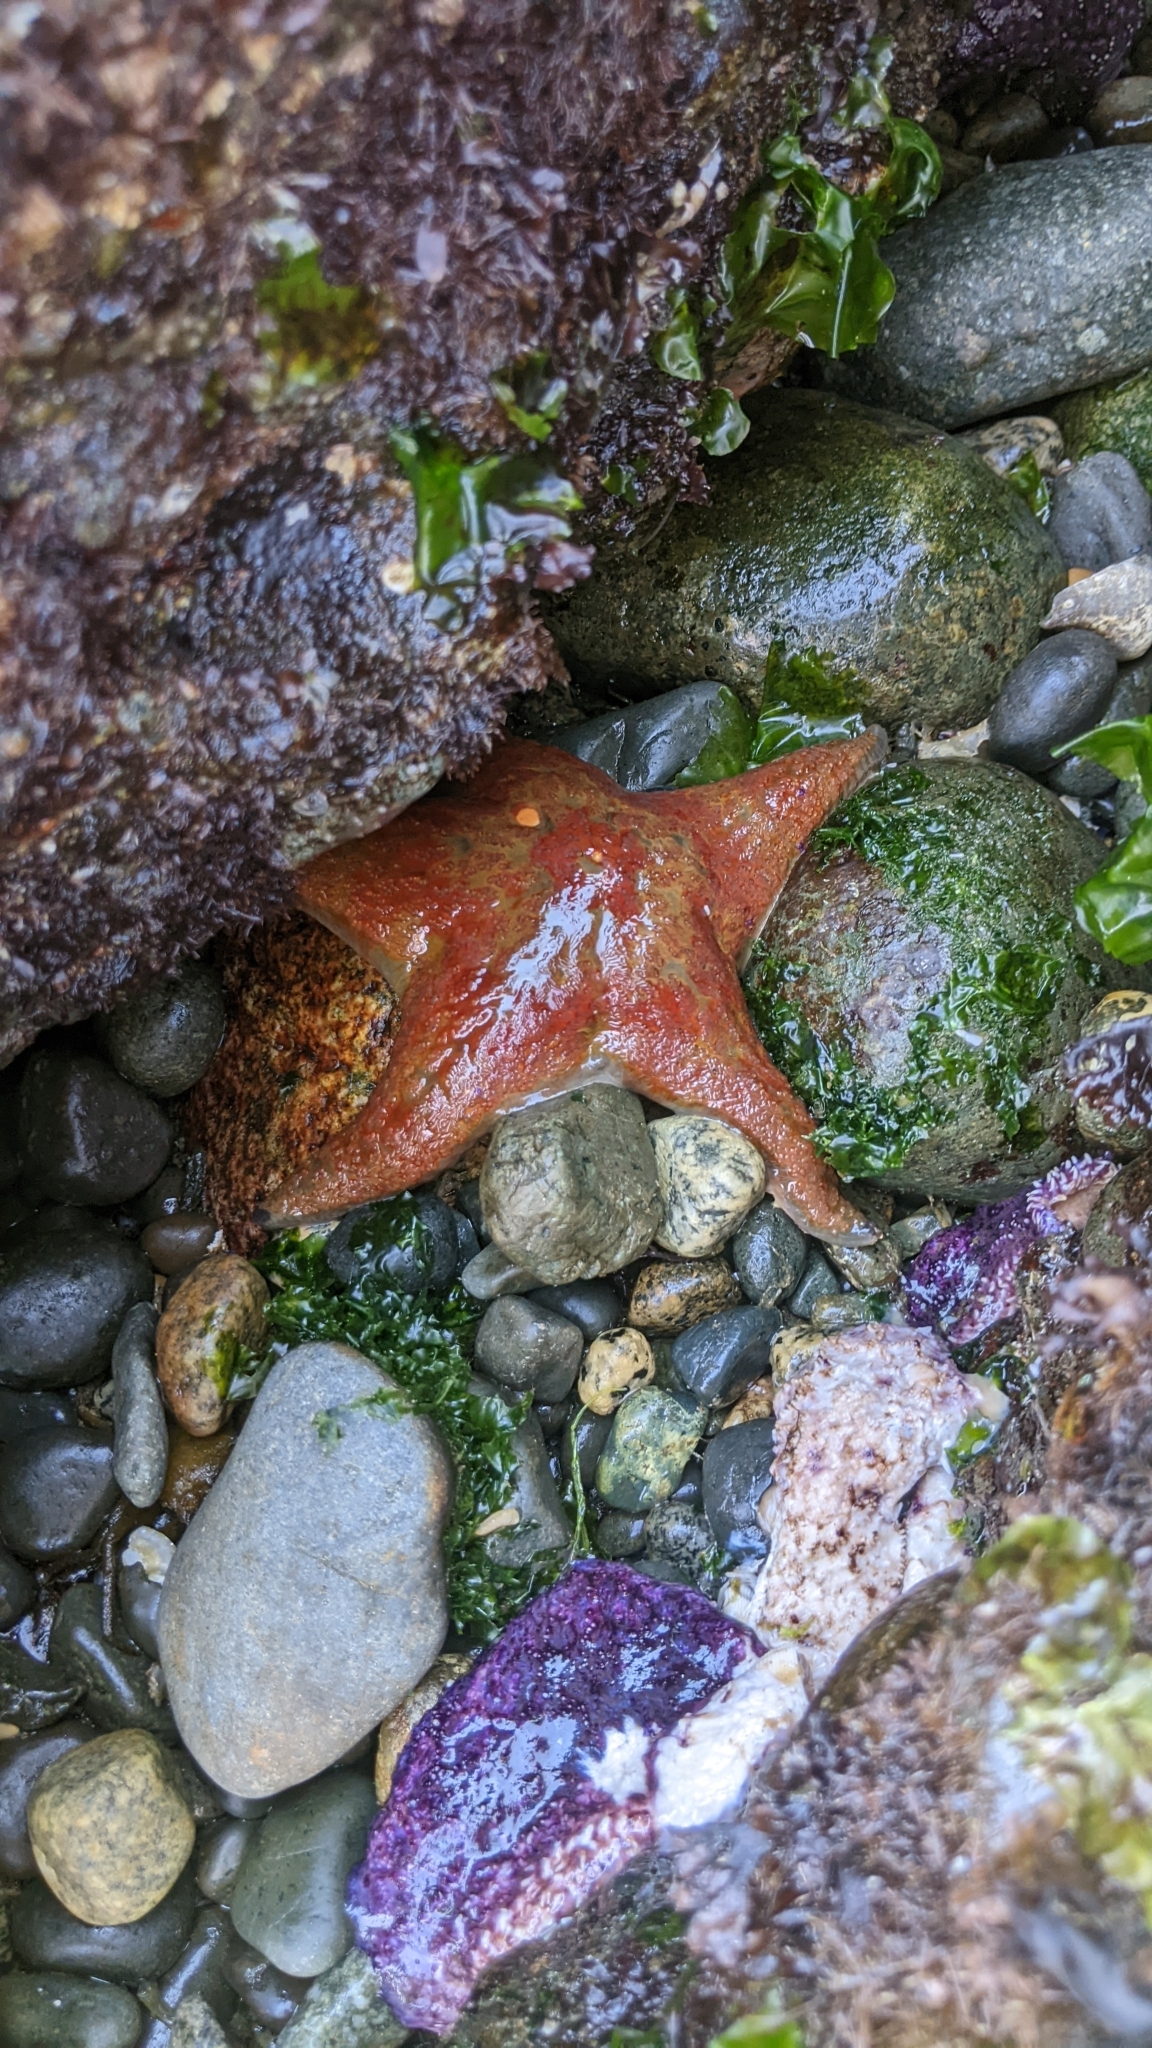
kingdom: Animalia
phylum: Echinodermata
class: Asteroidea
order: Valvatida
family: Asteropseidae
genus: Dermasterias
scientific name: Dermasterias imbricata
